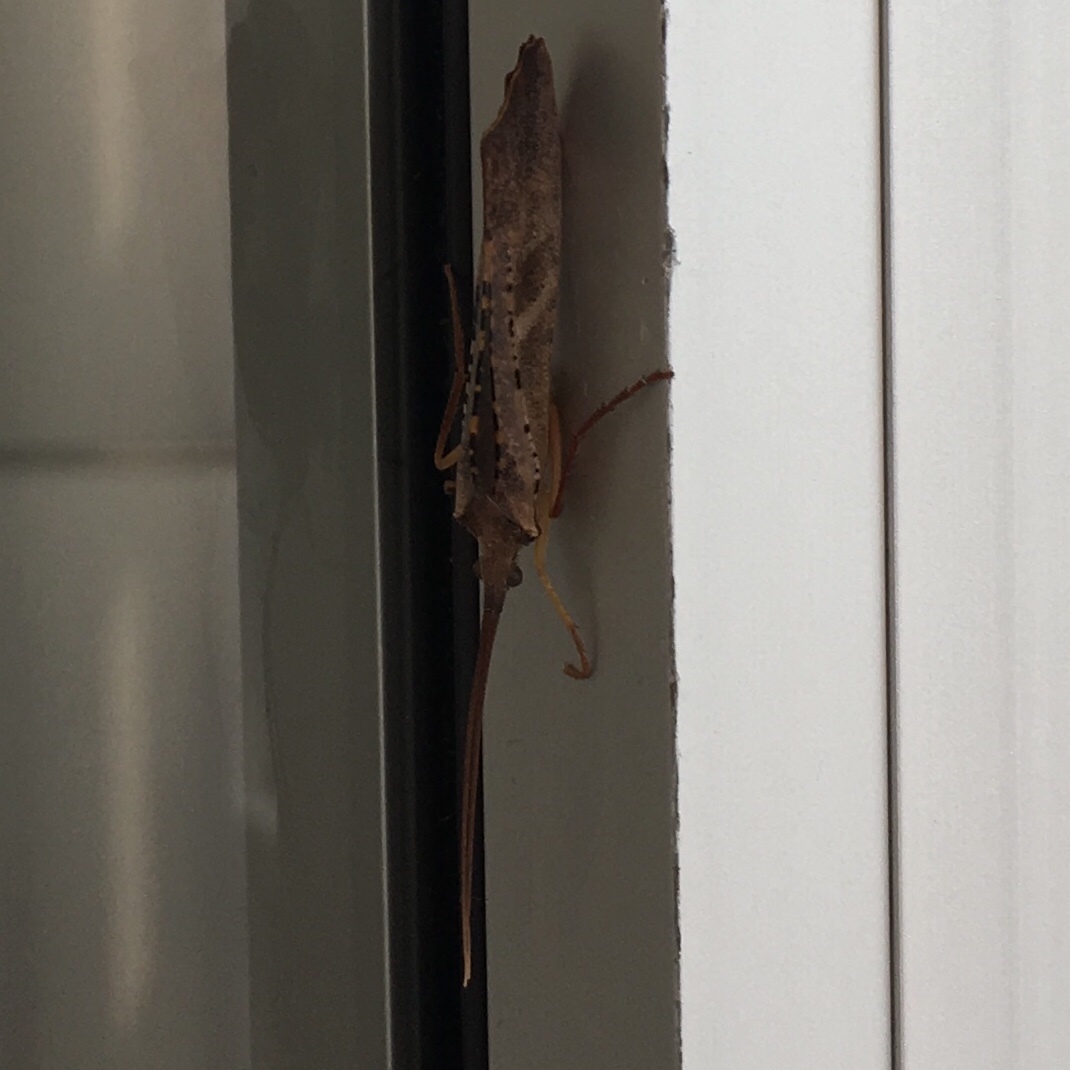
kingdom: Animalia
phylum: Arthropoda
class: Insecta
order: Trichoptera
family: Limnephilidae
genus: Nemotaulius
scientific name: Nemotaulius hostilis
